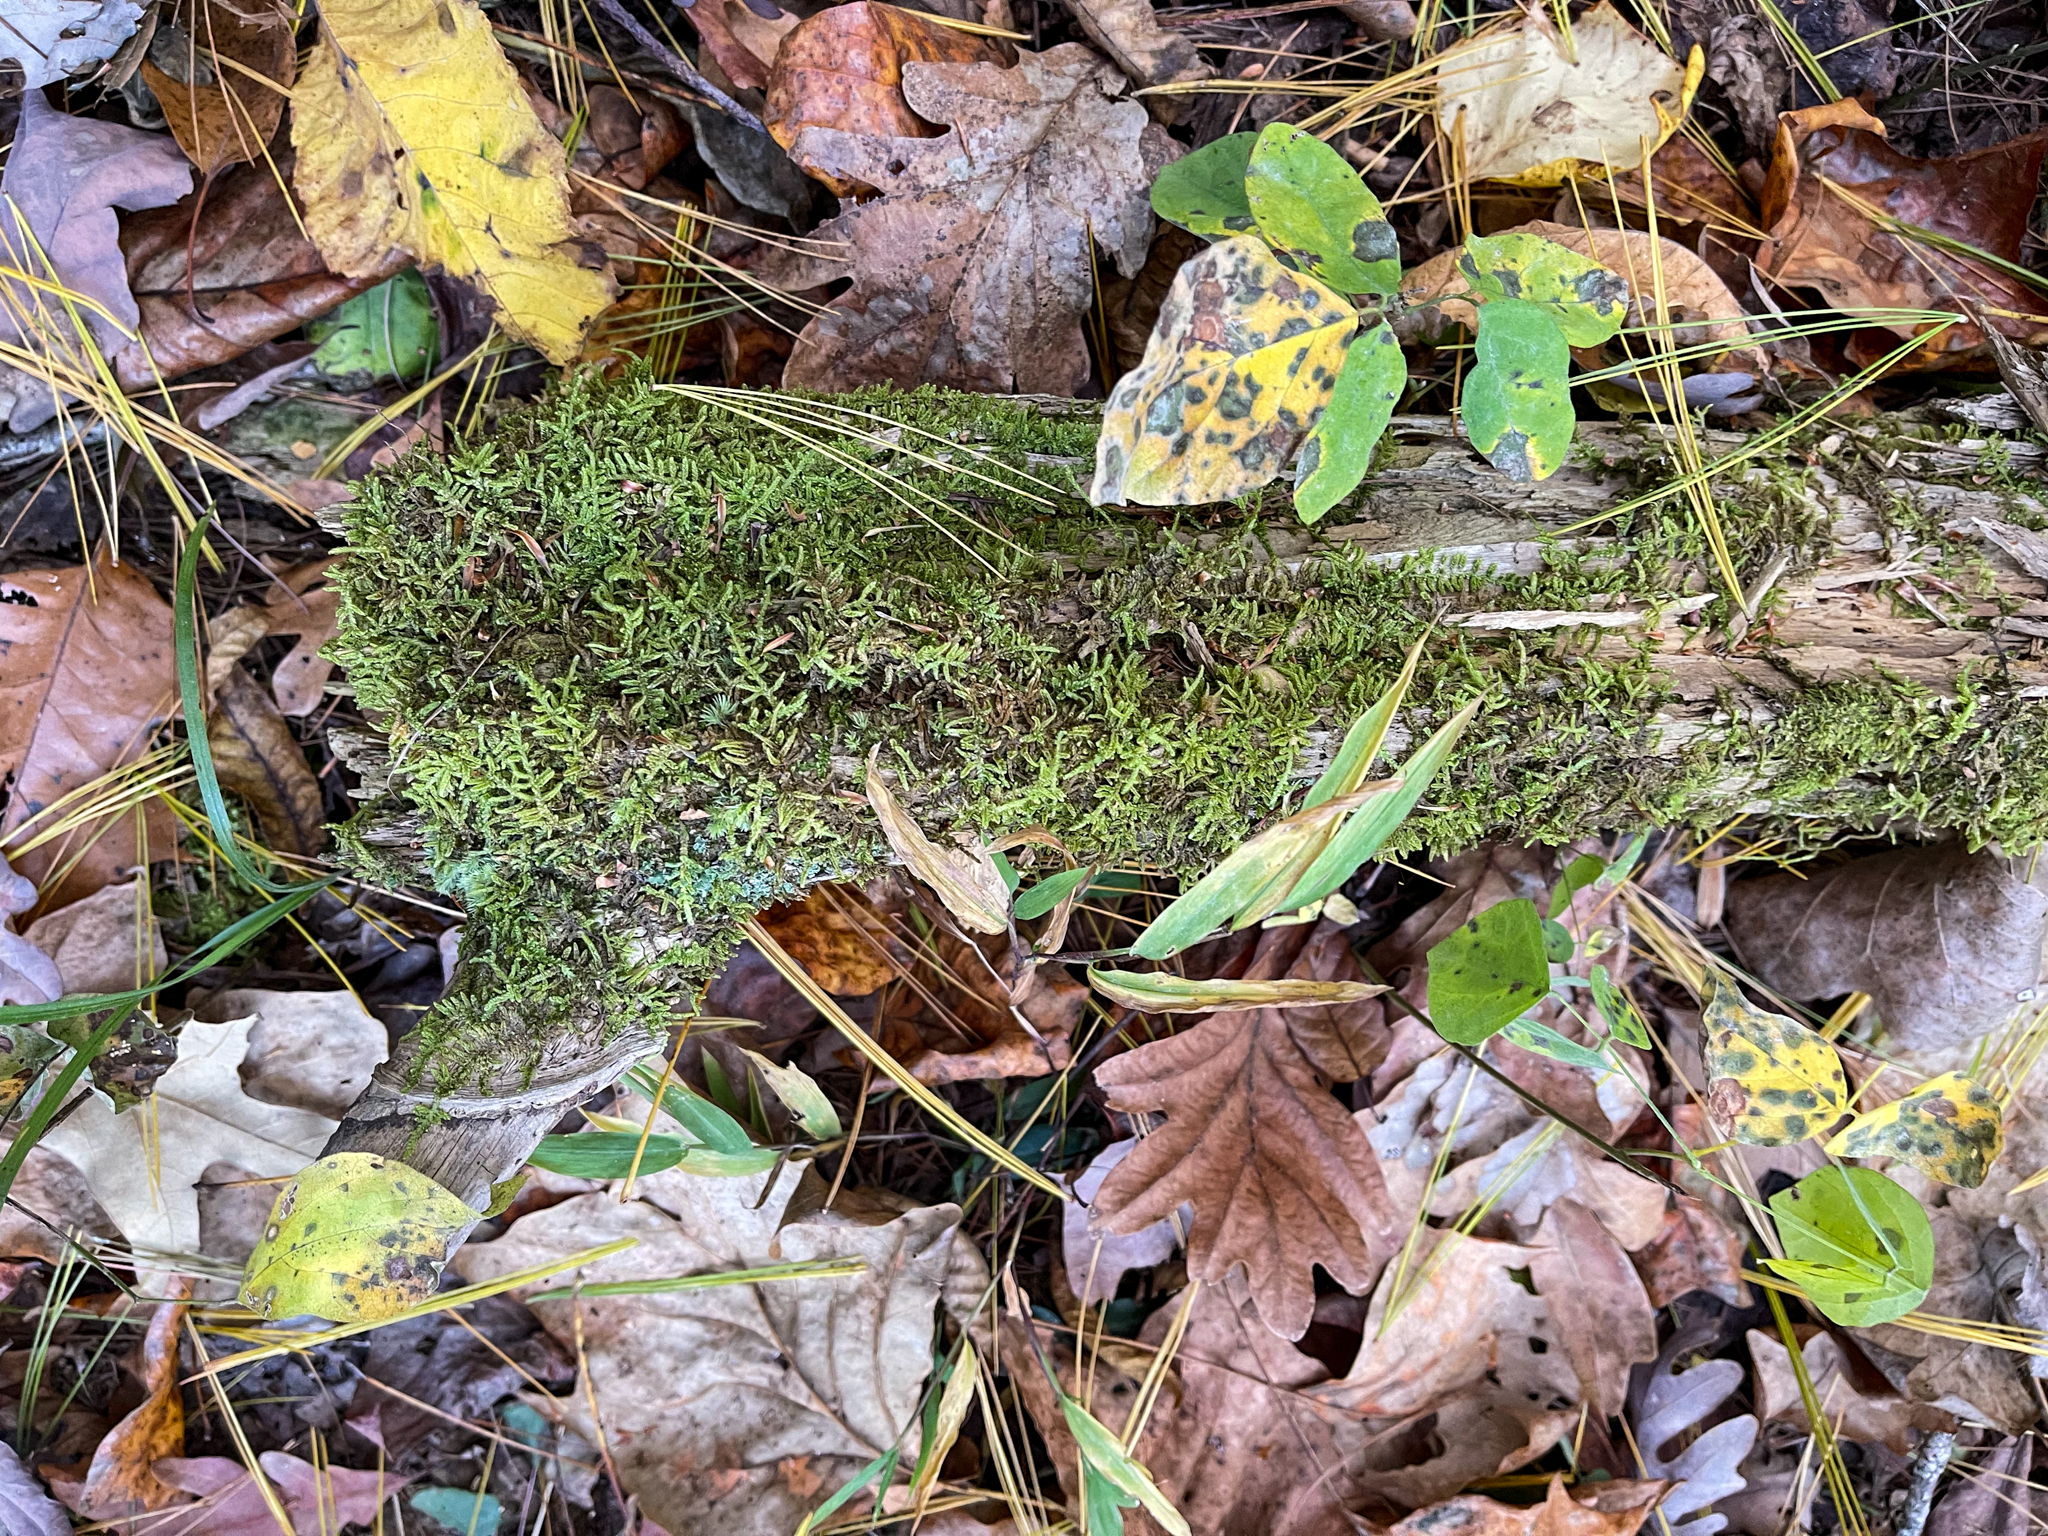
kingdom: Plantae
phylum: Bryophyta
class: Bryopsida
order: Hypnales
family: Callicladiaceae
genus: Callicladium
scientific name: Callicladium imponens
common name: Brocade moss
